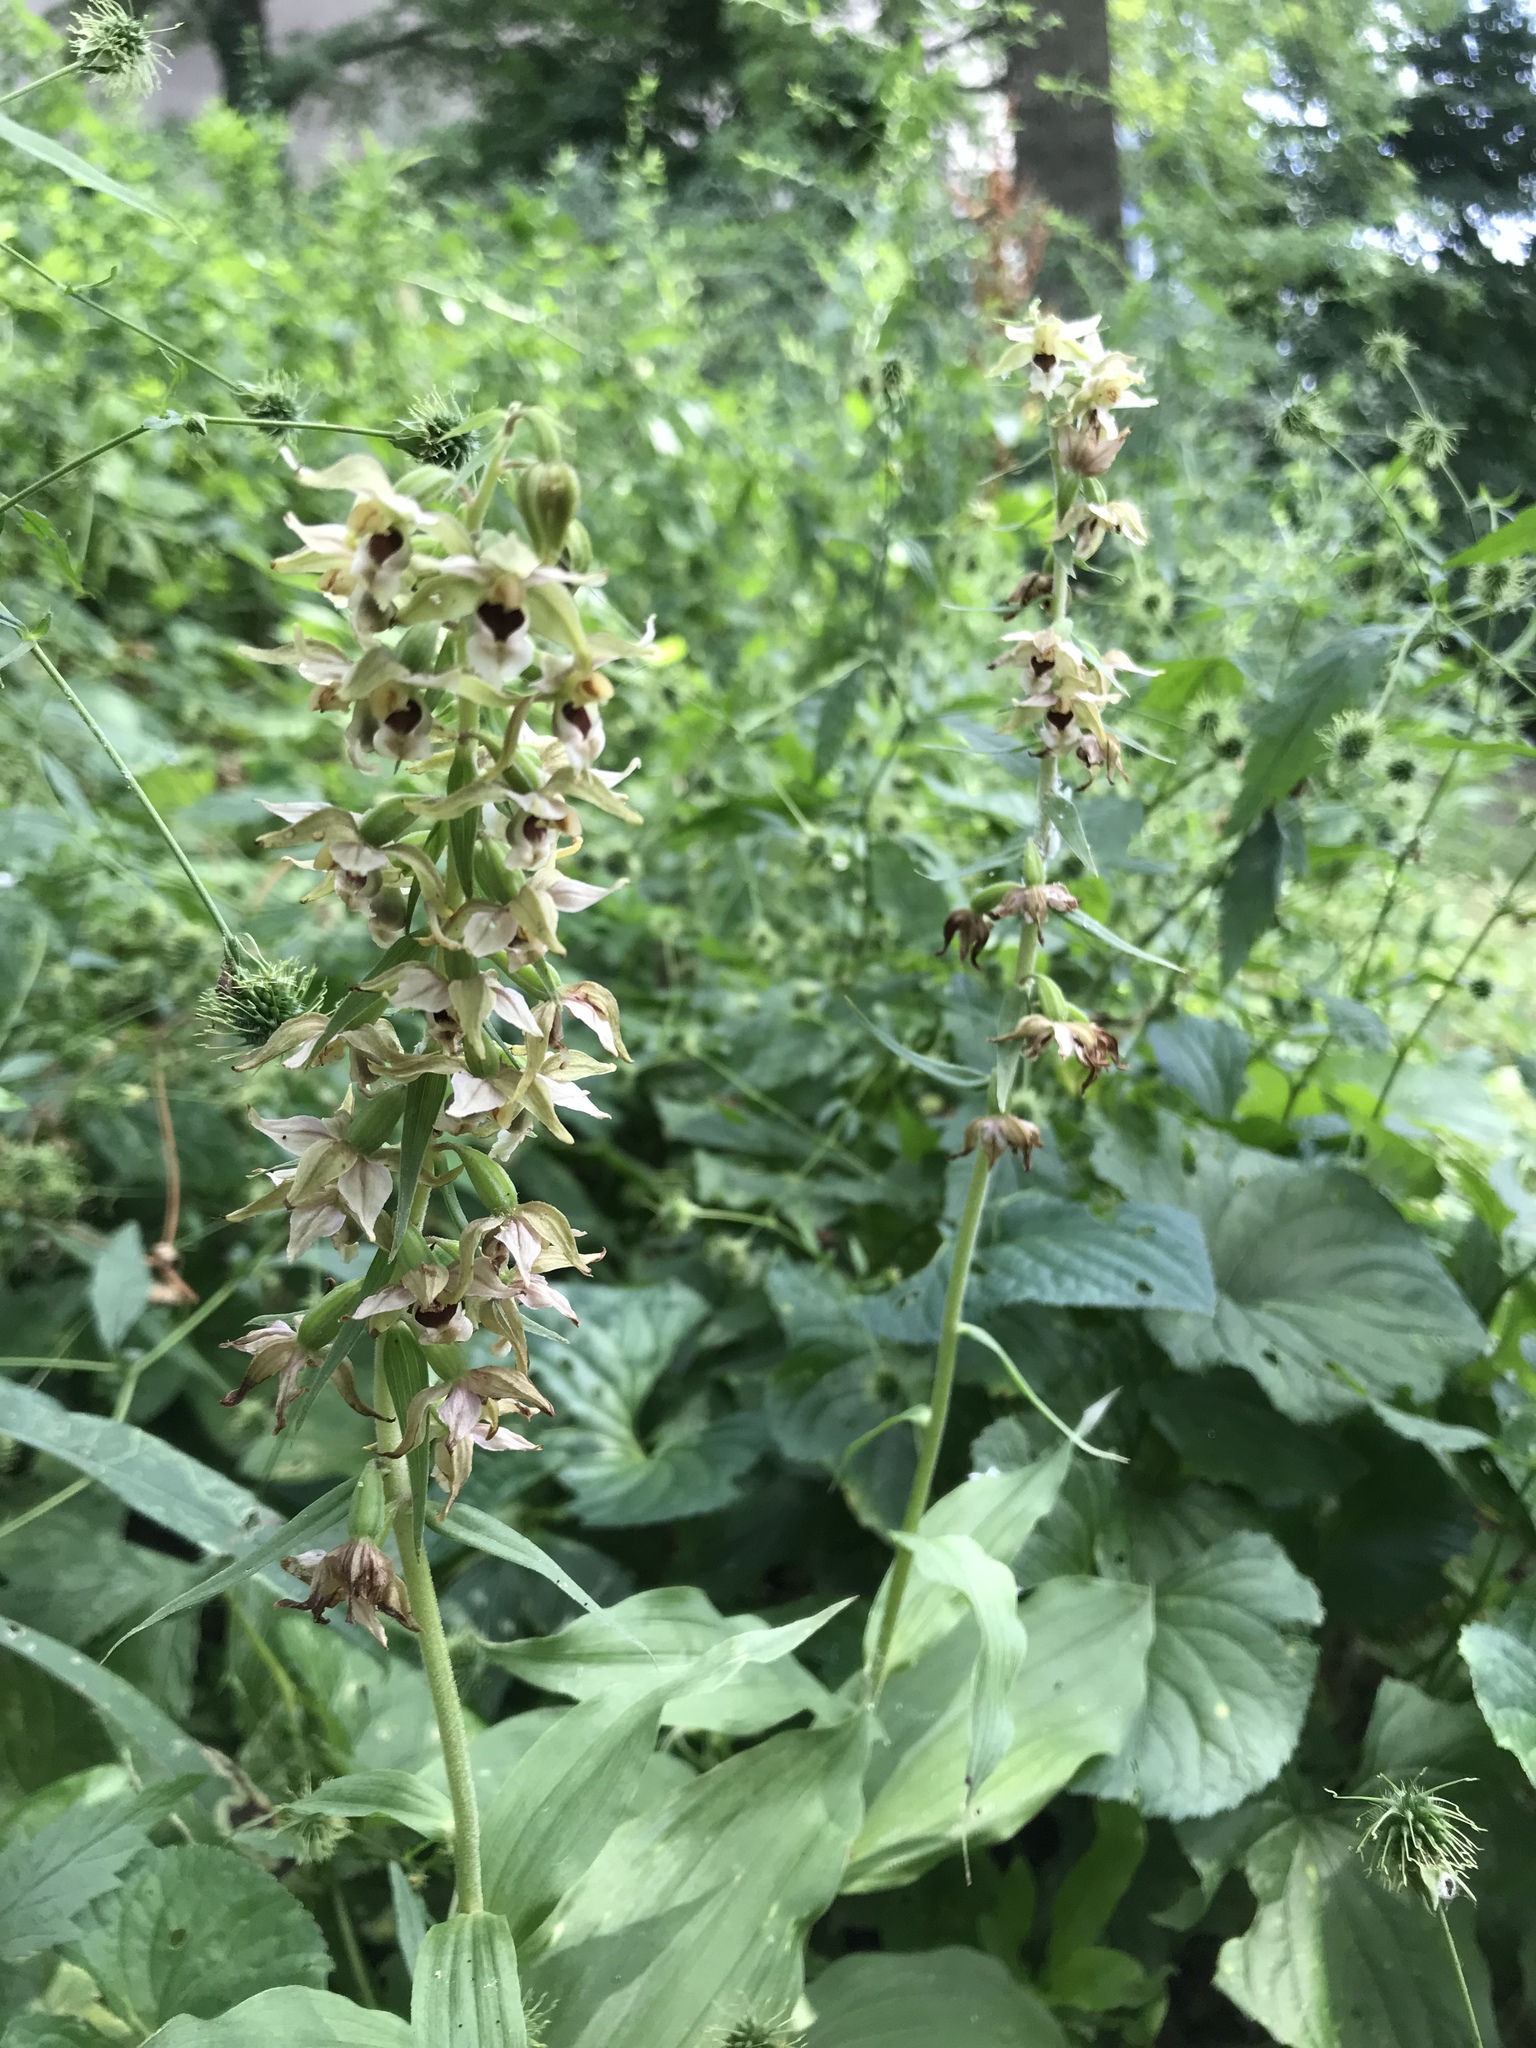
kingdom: Plantae
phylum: Tracheophyta
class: Liliopsida
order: Asparagales
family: Orchidaceae
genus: Epipactis
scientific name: Epipactis helleborine
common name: Broad-leaved helleborine
